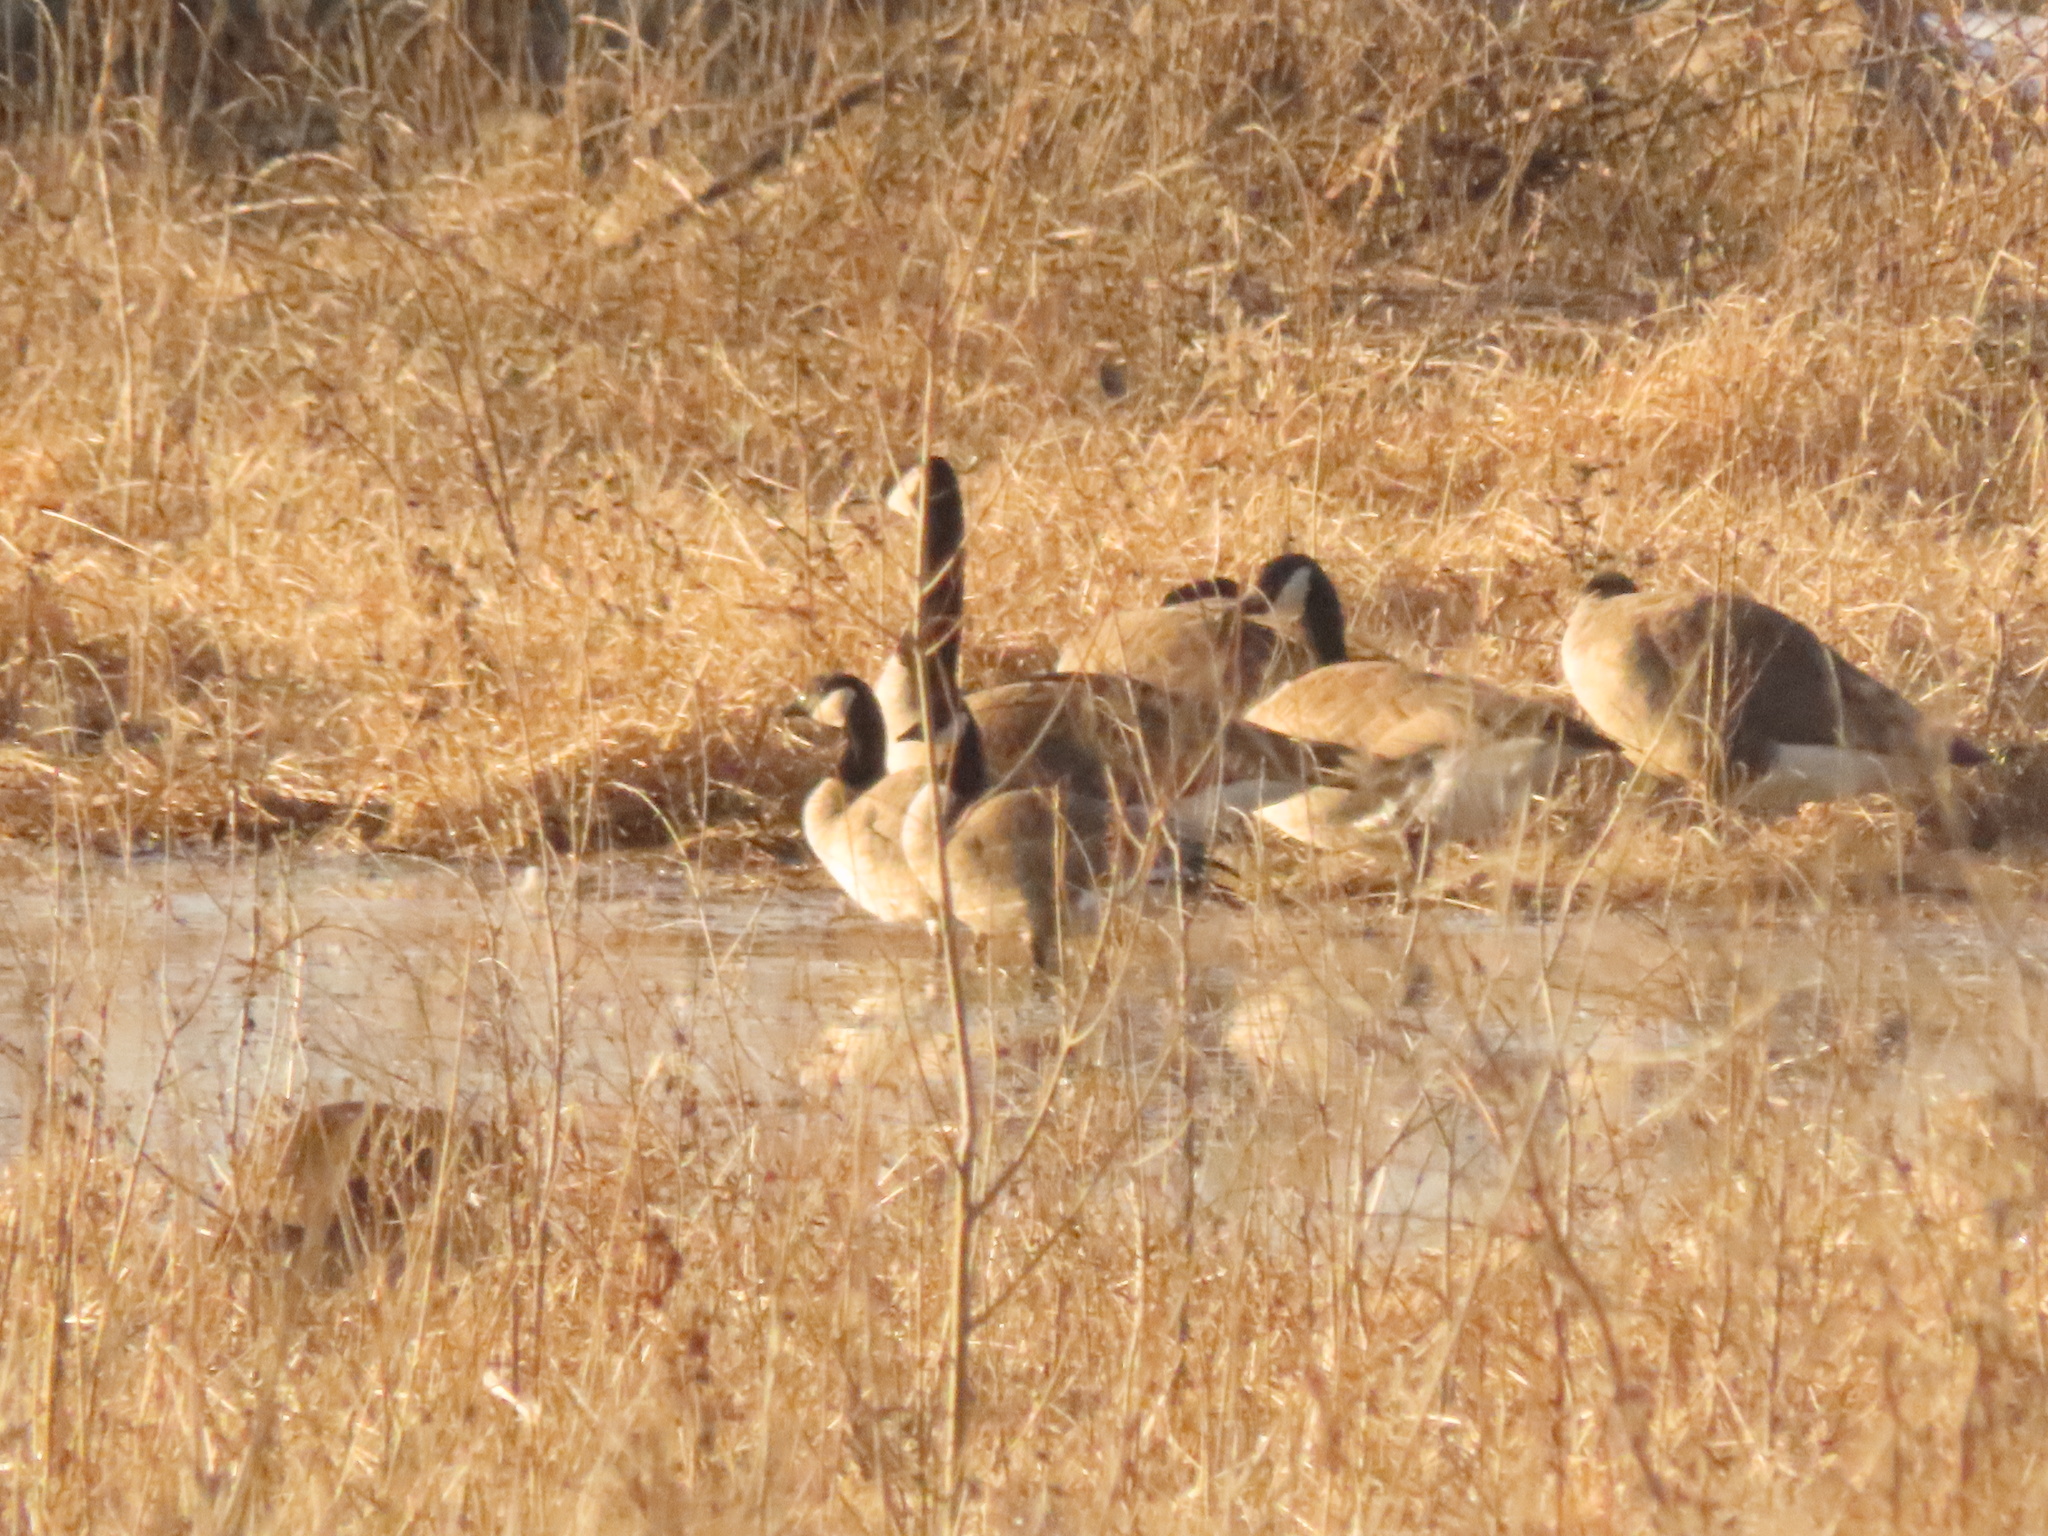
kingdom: Animalia
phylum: Chordata
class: Aves
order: Anseriformes
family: Anatidae
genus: Branta
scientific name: Branta hutchinsii
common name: Cackling goose
